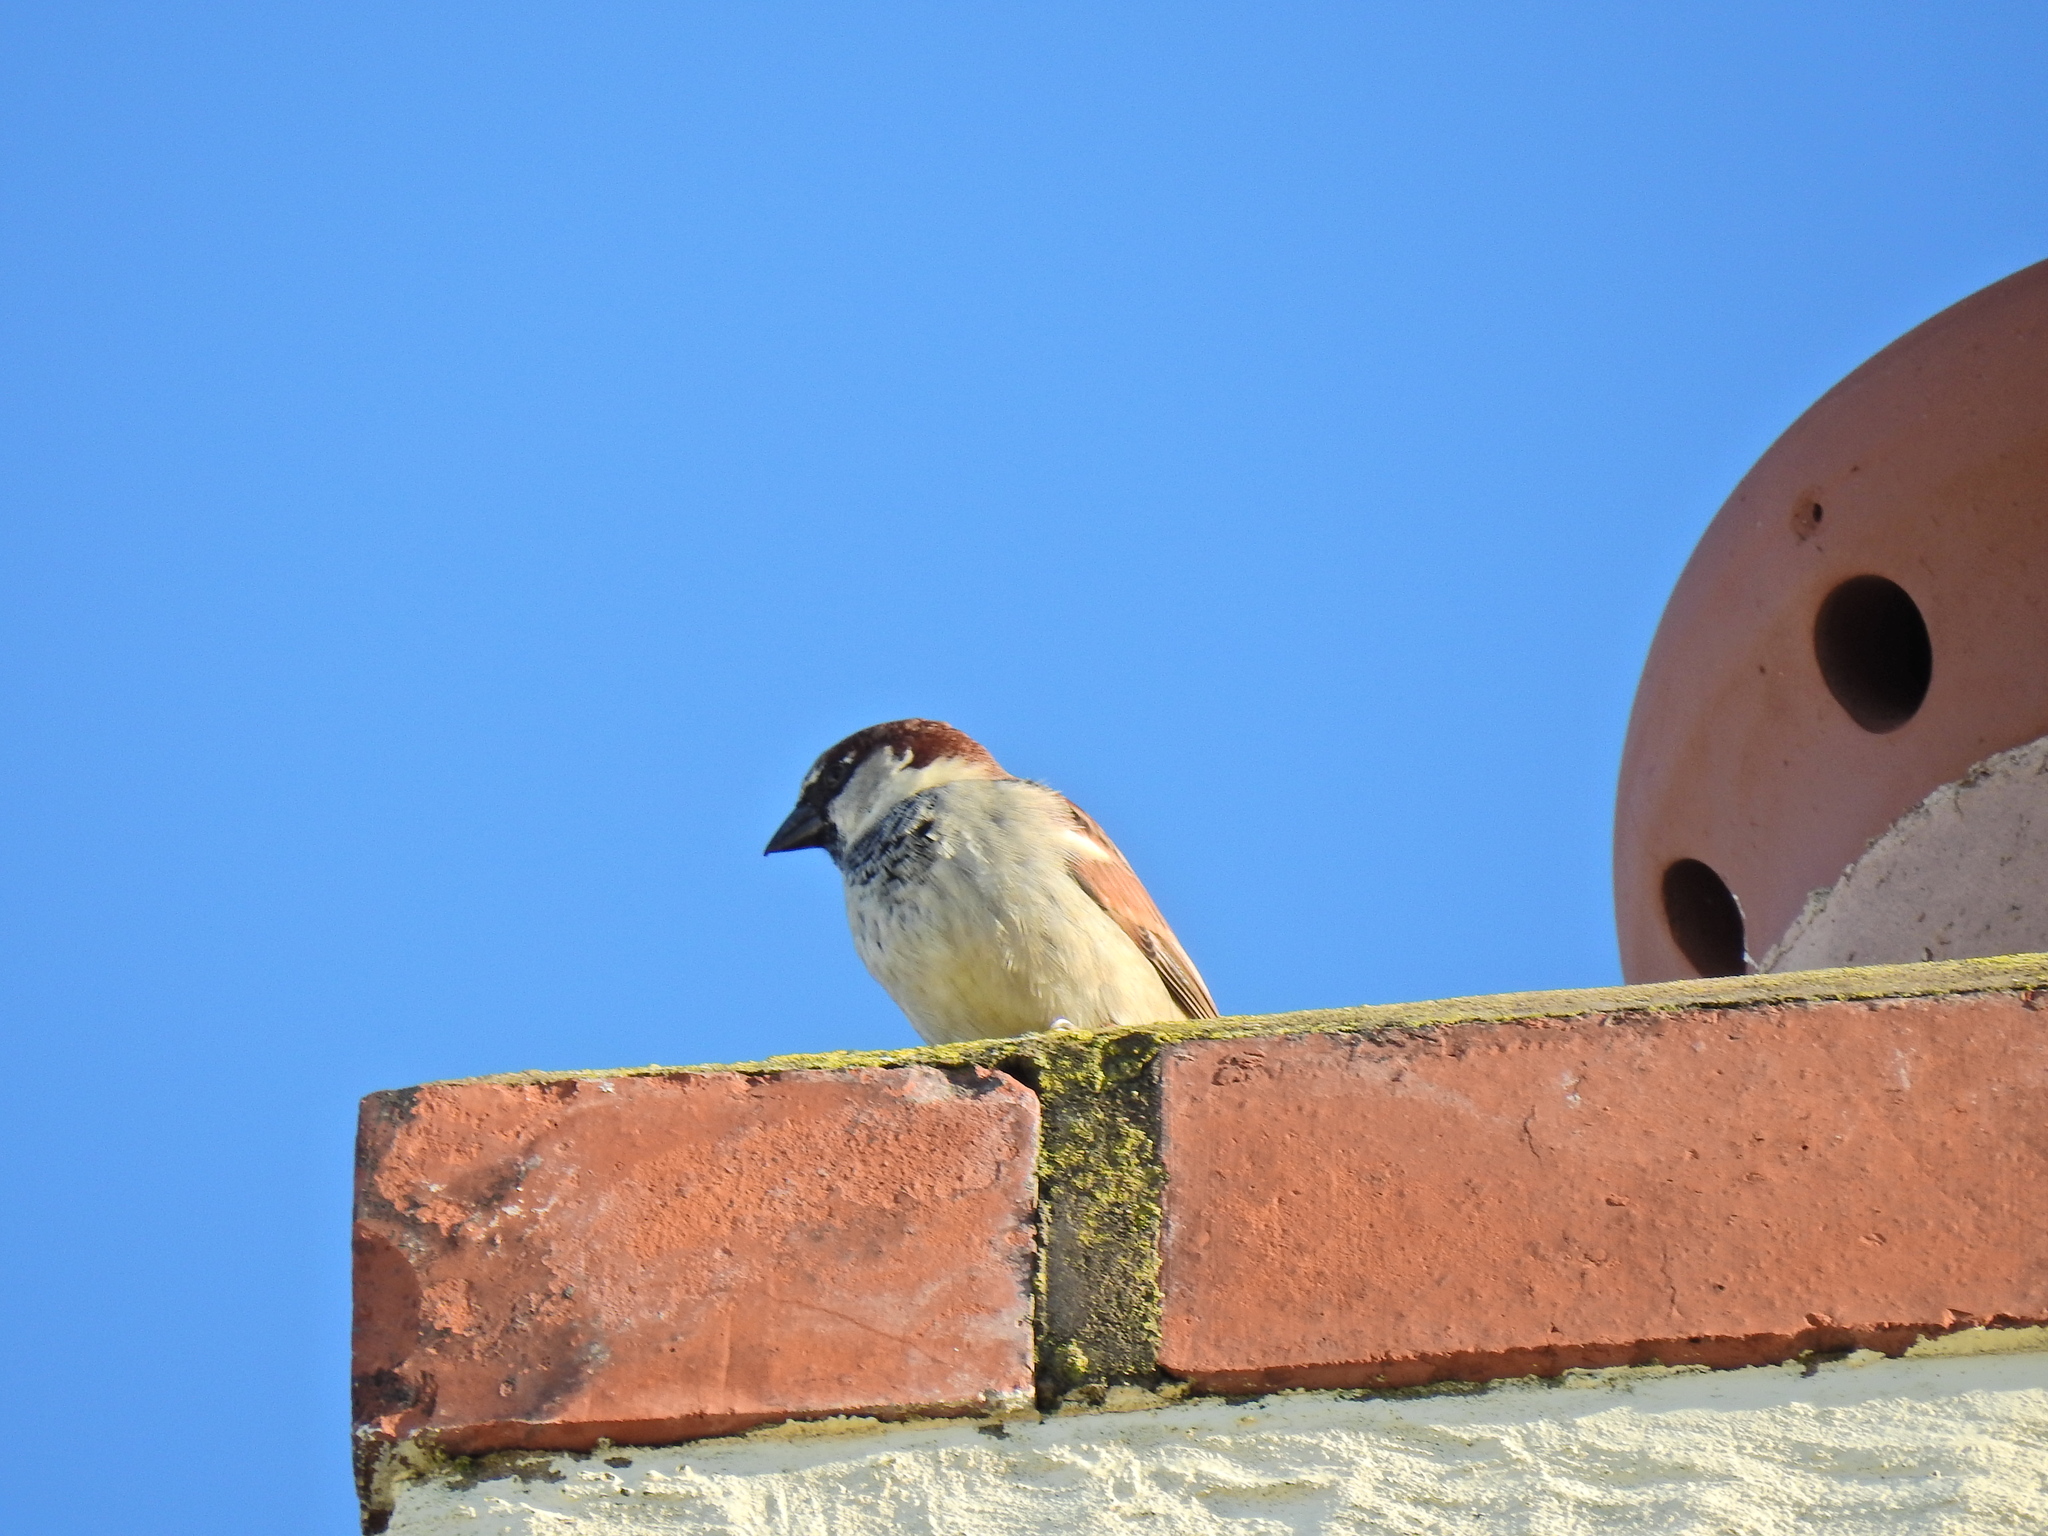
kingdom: Animalia
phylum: Chordata
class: Aves
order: Passeriformes
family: Passeridae
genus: Passer
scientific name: Passer domesticus
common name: House sparrow
